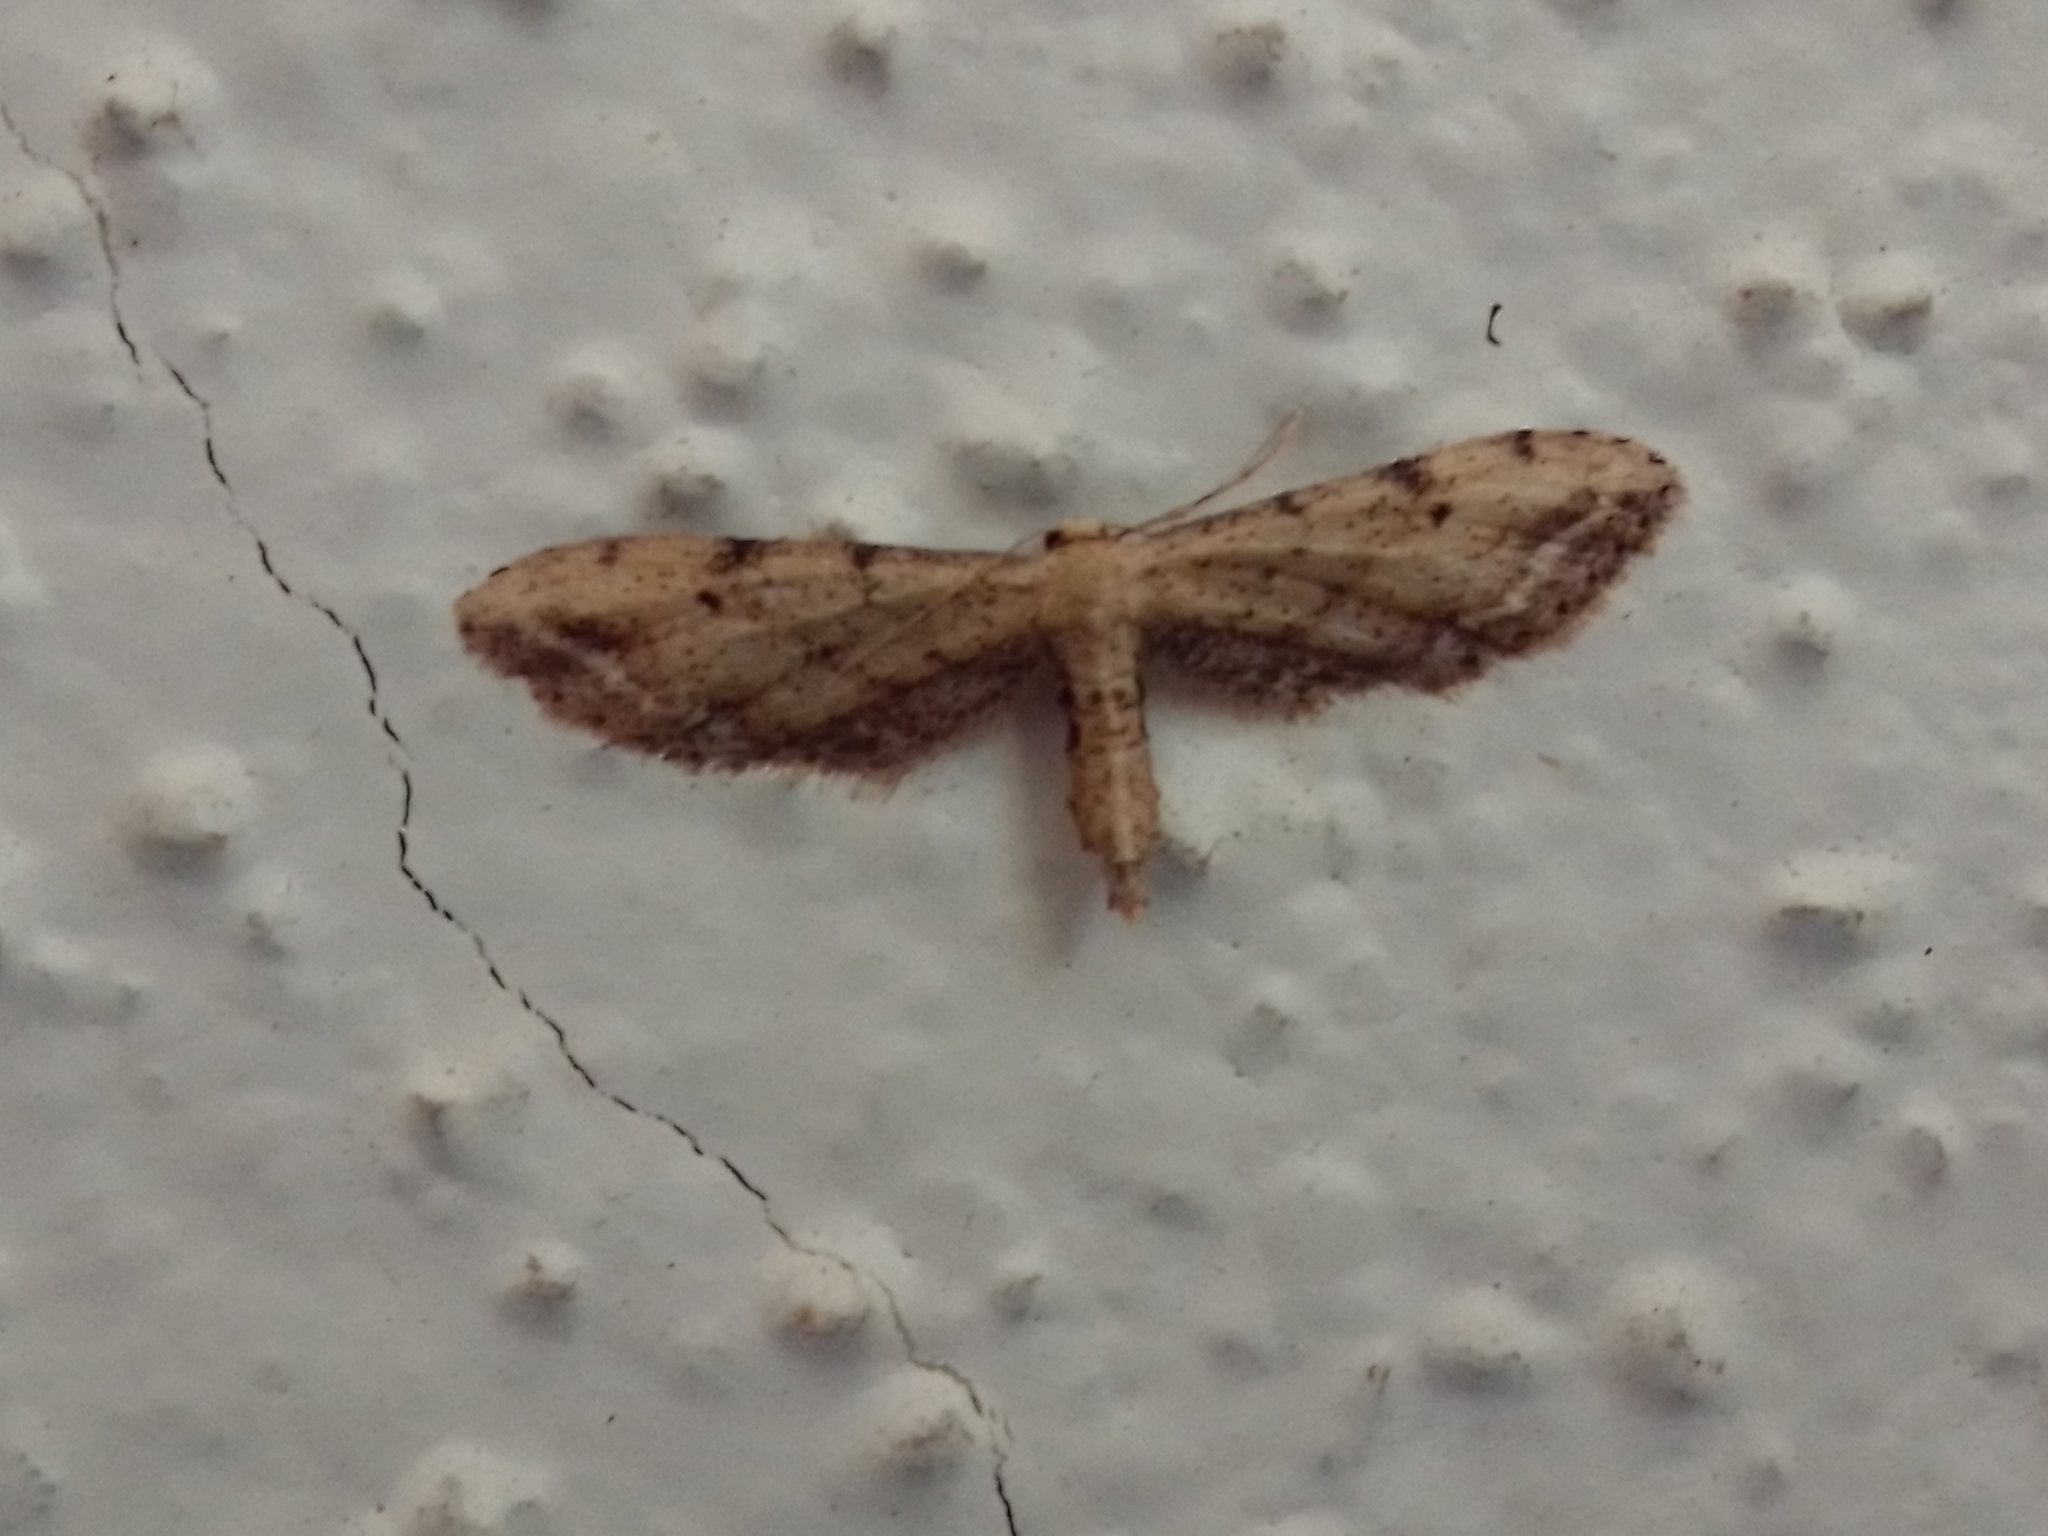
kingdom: Animalia
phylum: Arthropoda
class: Insecta
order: Lepidoptera
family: Geometridae
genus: Idaea
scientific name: Idaea attenuaria
